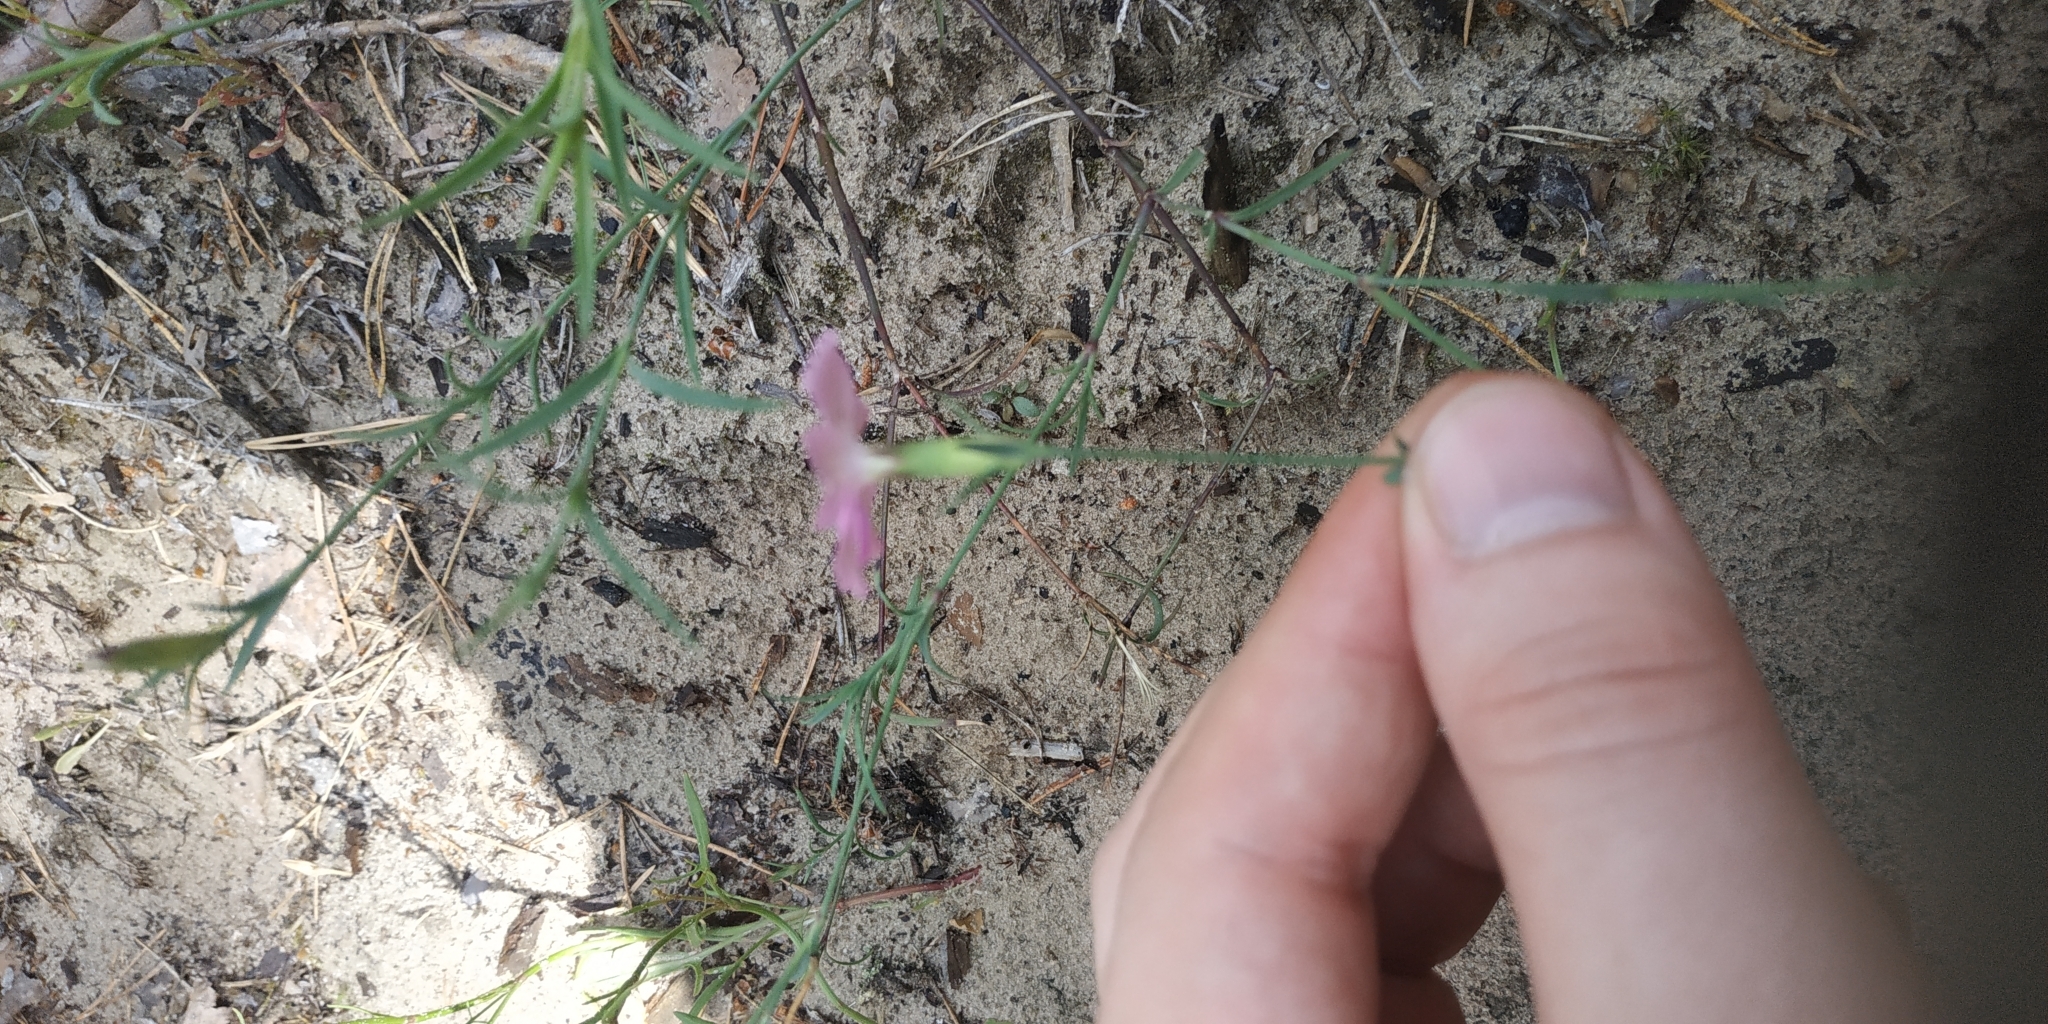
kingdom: Plantae
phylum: Tracheophyta
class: Magnoliopsida
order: Caryophyllales
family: Caryophyllaceae
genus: Dianthus
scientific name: Dianthus chinensis
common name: Rainbow pink
